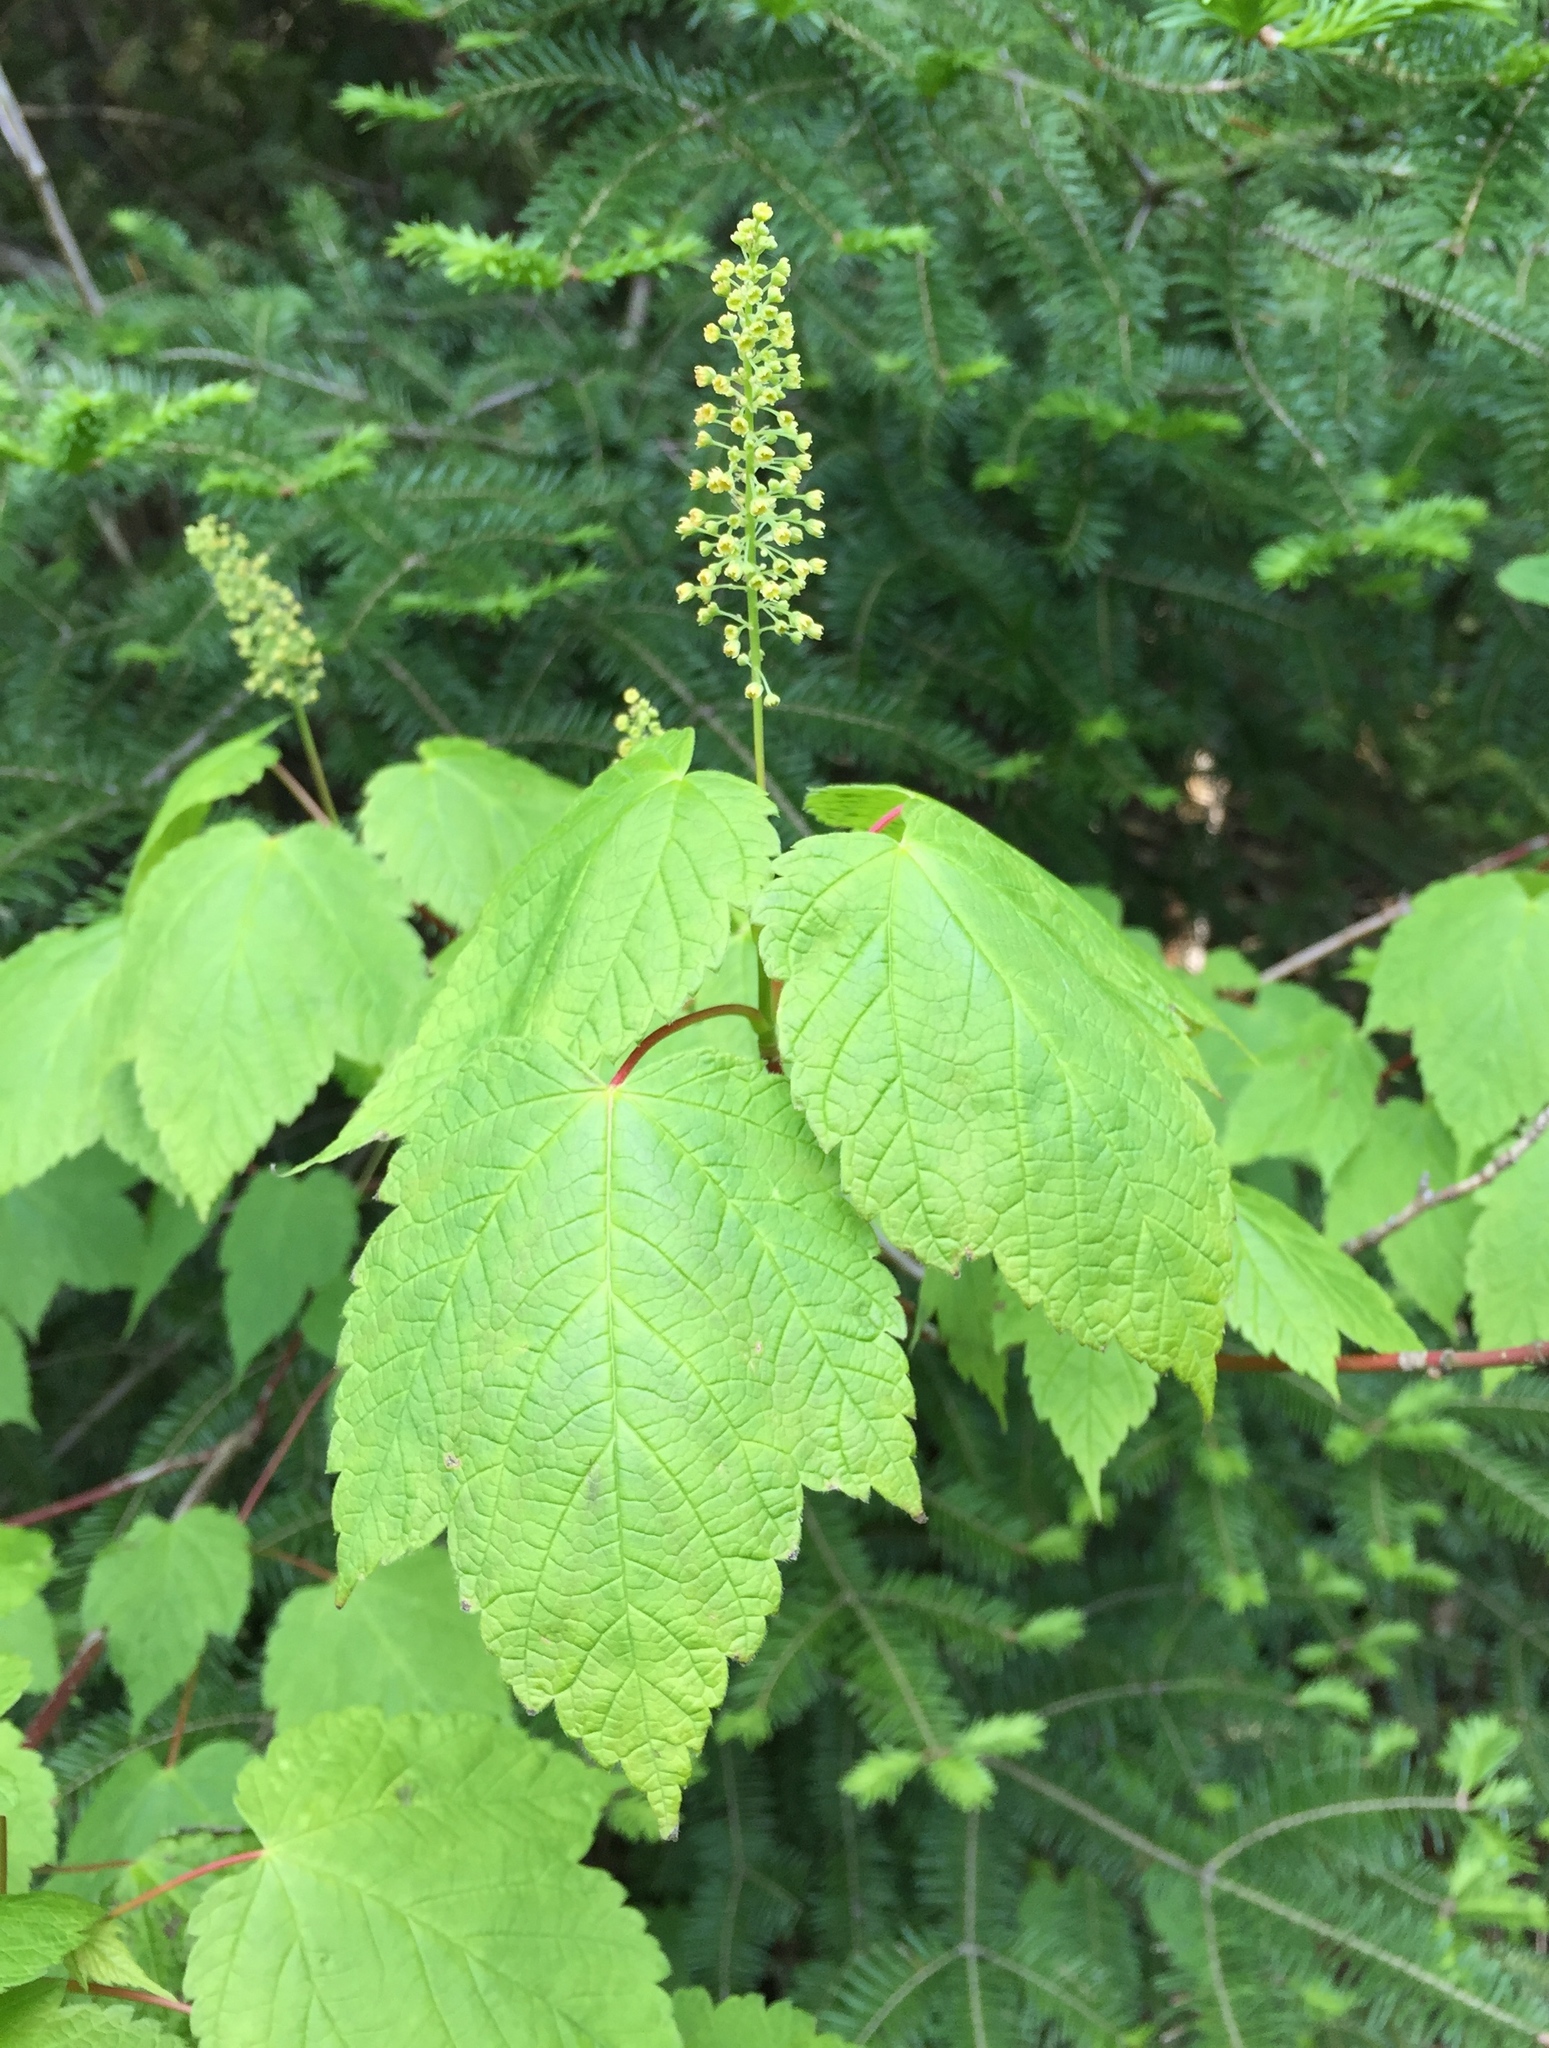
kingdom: Plantae
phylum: Tracheophyta
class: Magnoliopsida
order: Sapindales
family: Sapindaceae
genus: Acer
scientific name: Acer spicatum
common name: Mountain maple
